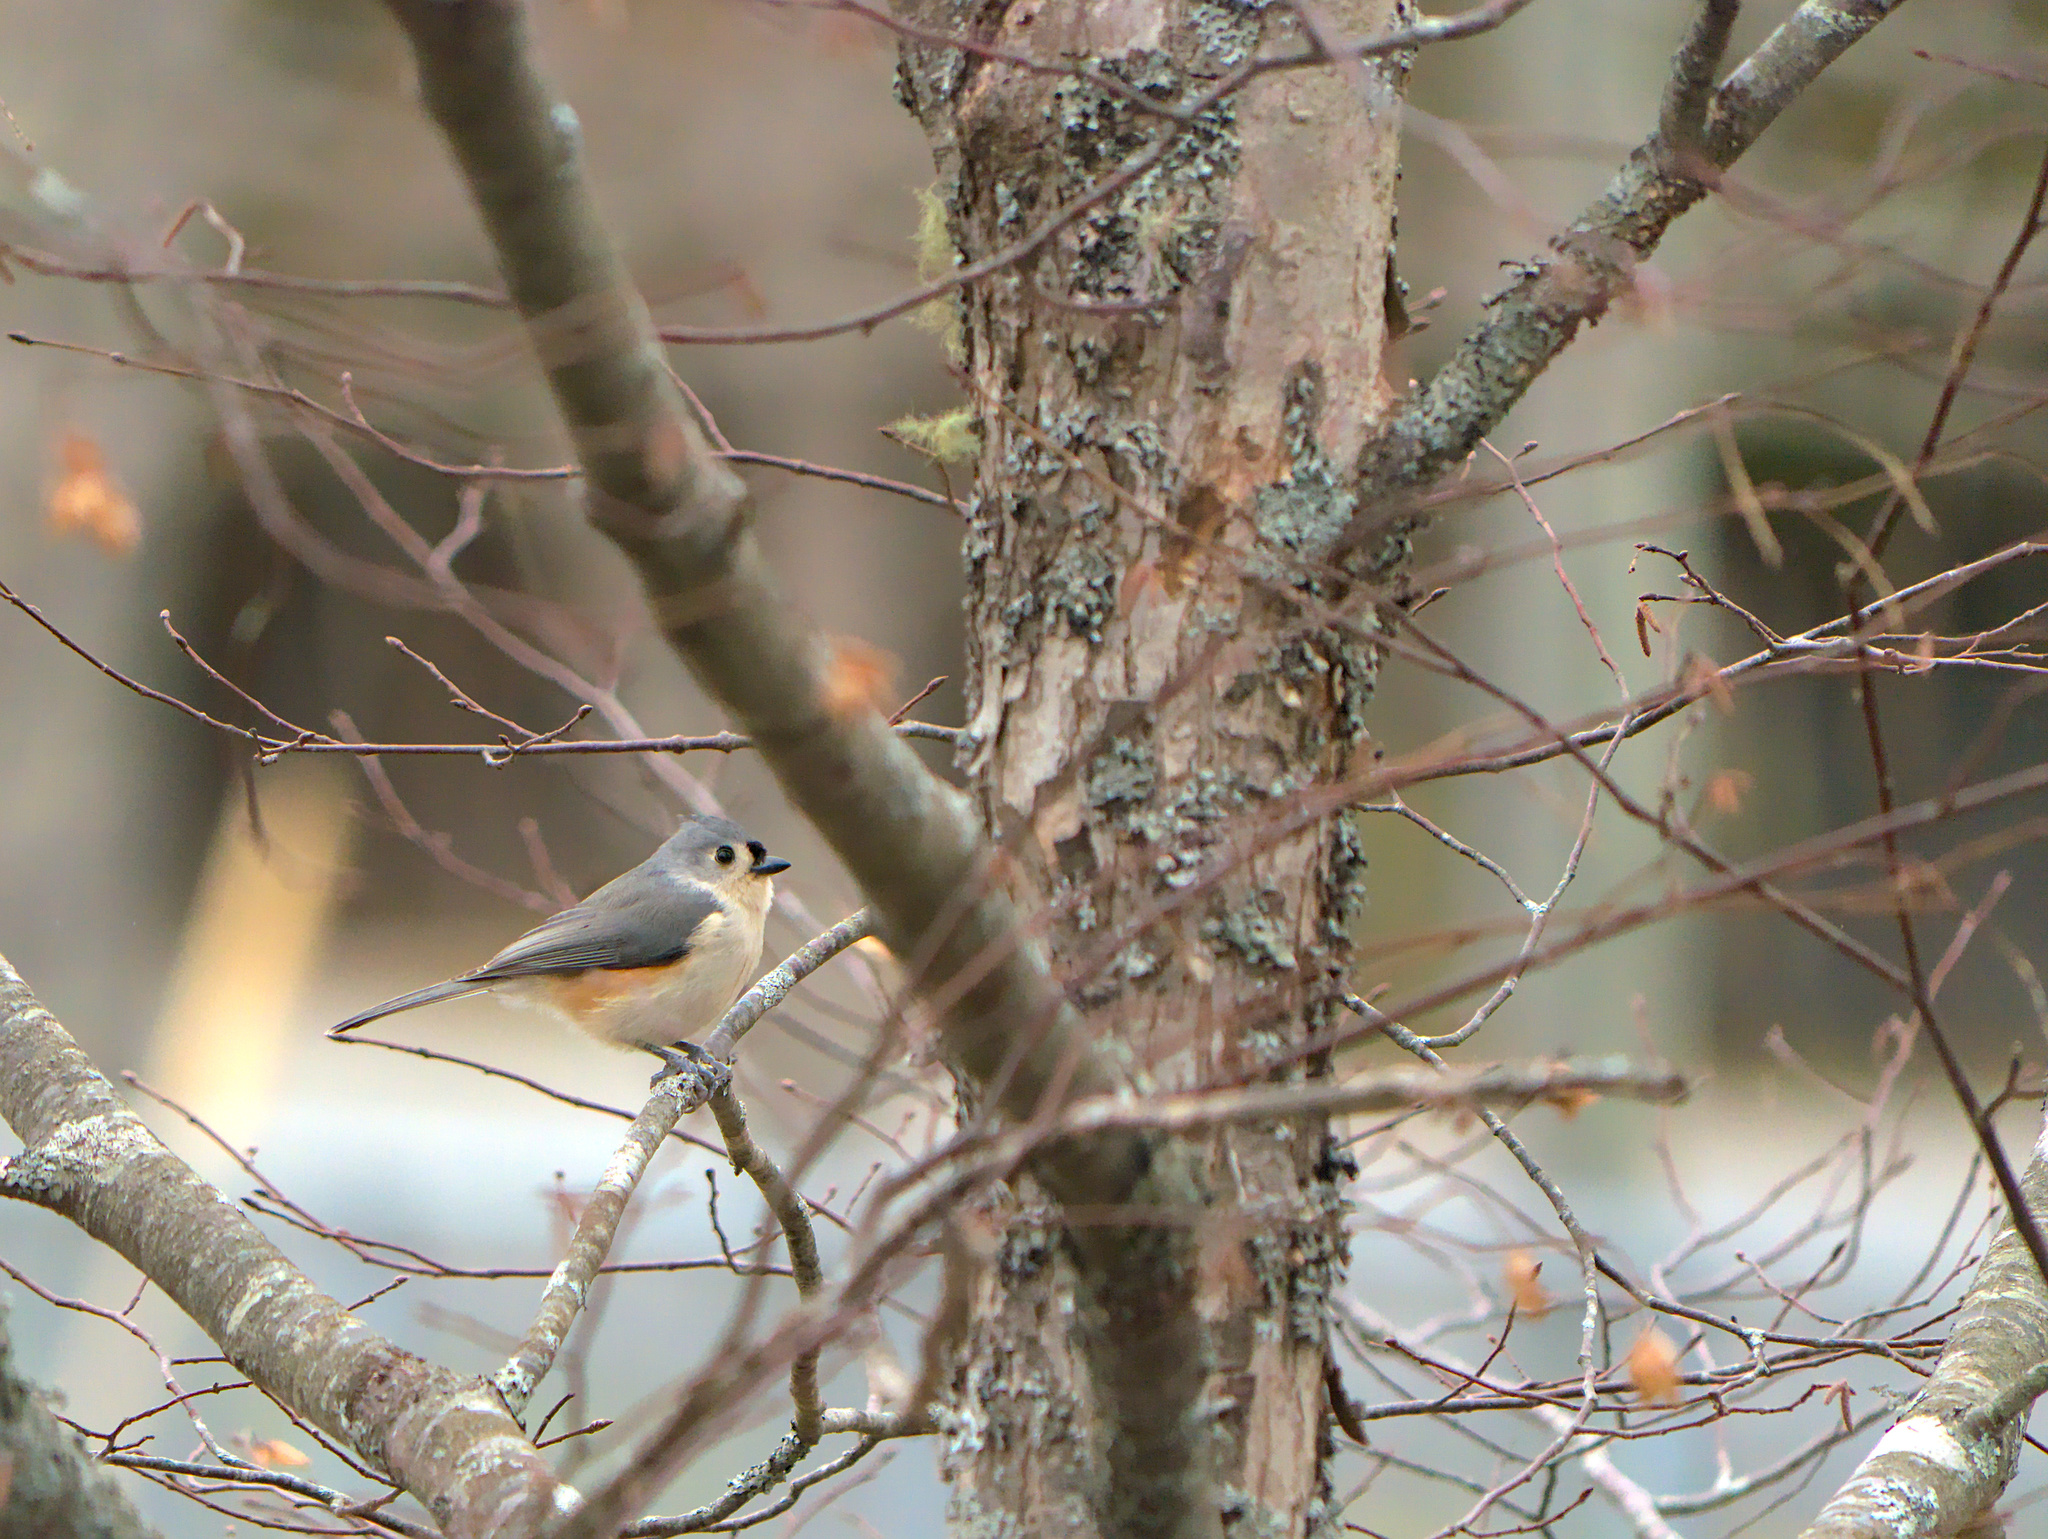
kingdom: Animalia
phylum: Chordata
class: Aves
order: Passeriformes
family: Paridae
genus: Baeolophus
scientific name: Baeolophus bicolor
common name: Tufted titmouse
